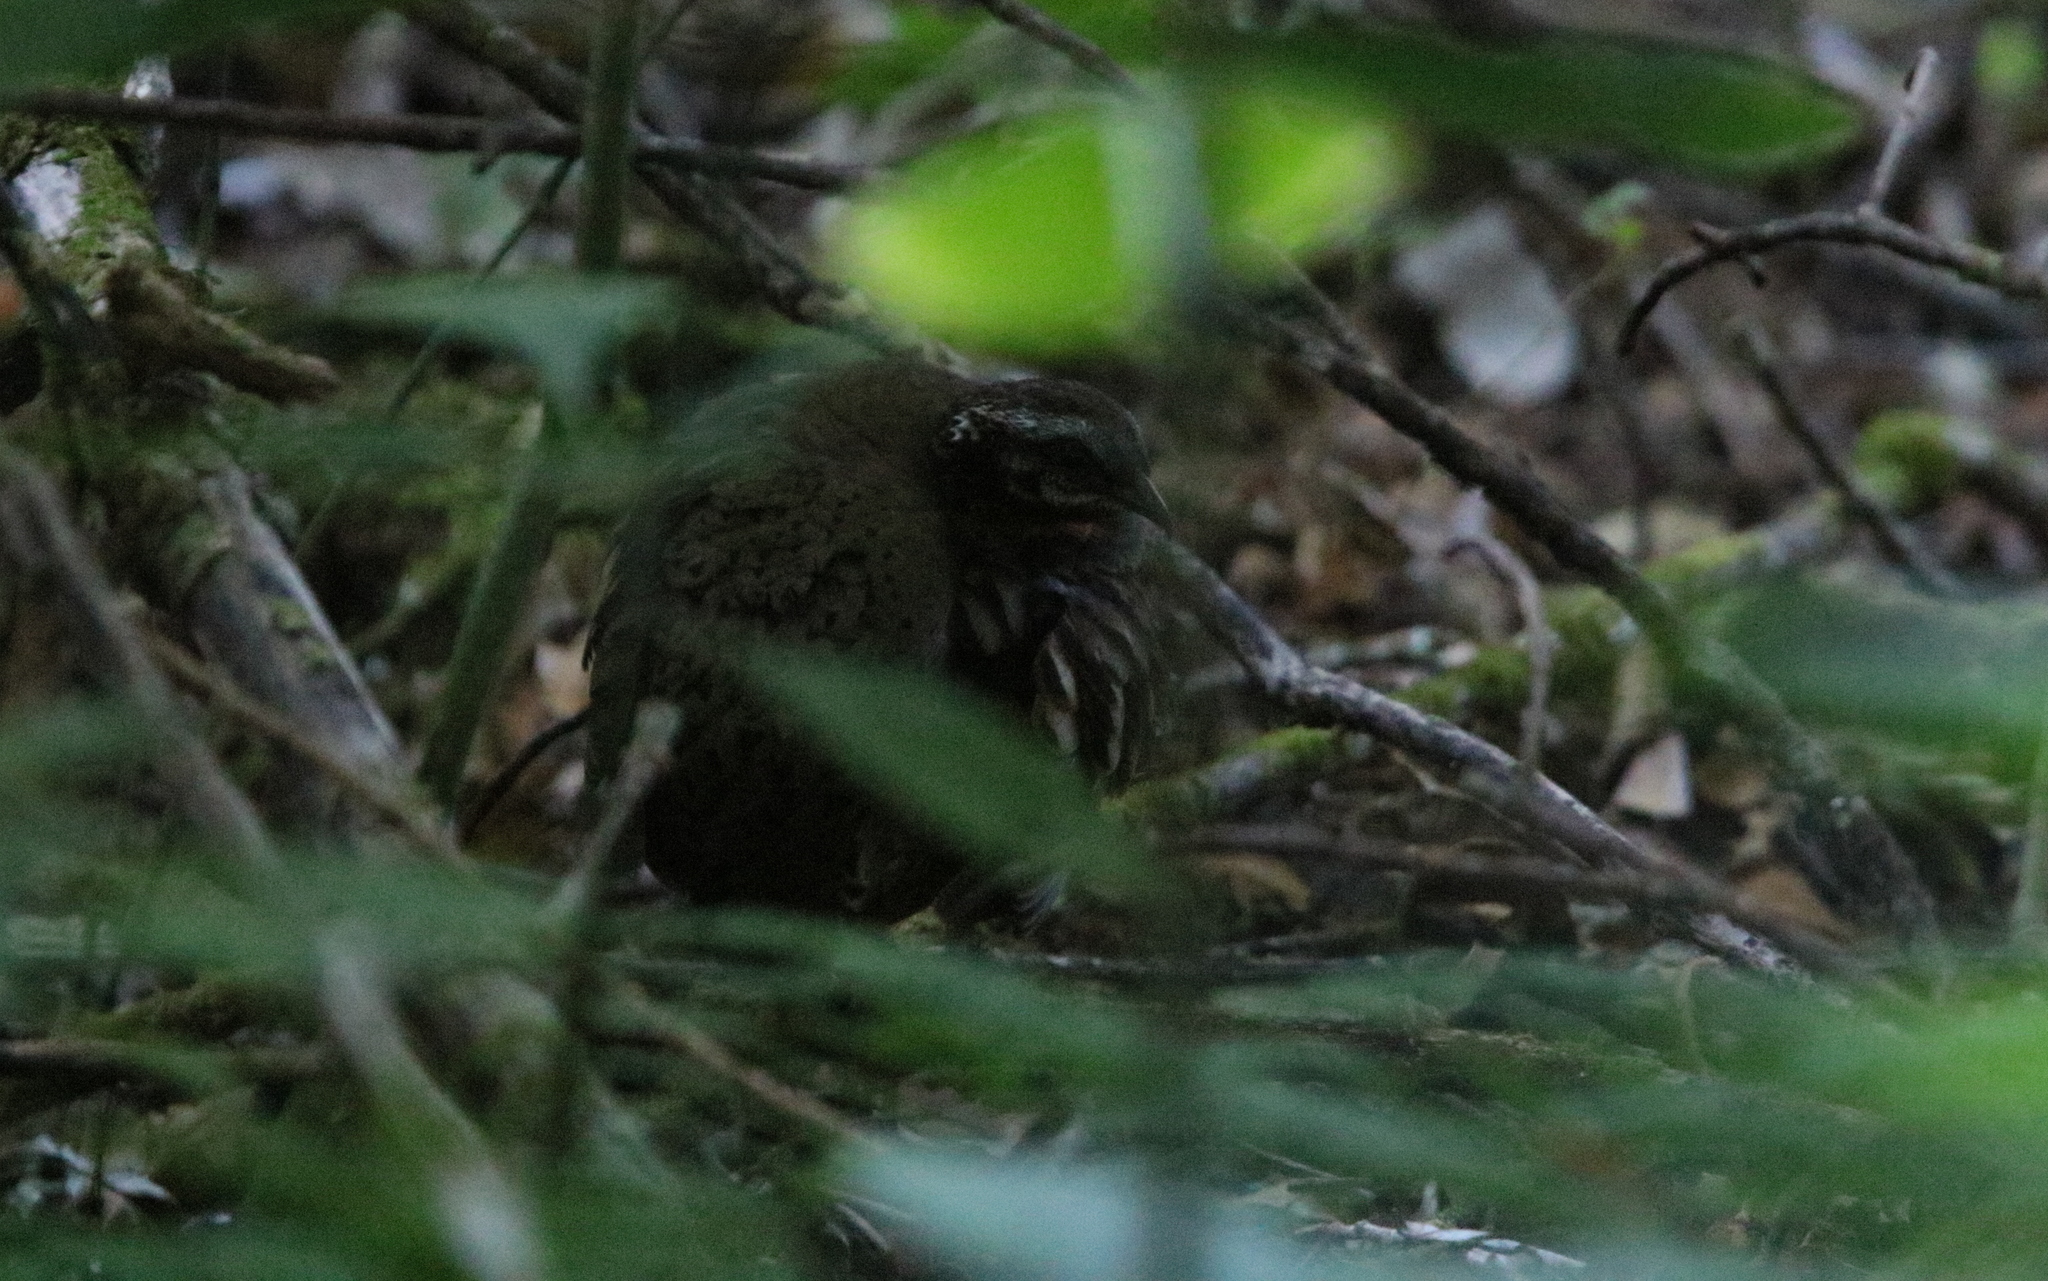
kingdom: Animalia
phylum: Chordata
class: Aves
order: Galliformes
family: Phasianidae
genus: Arborophila
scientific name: Arborophila rufogularis
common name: Rufous-throated partridge
